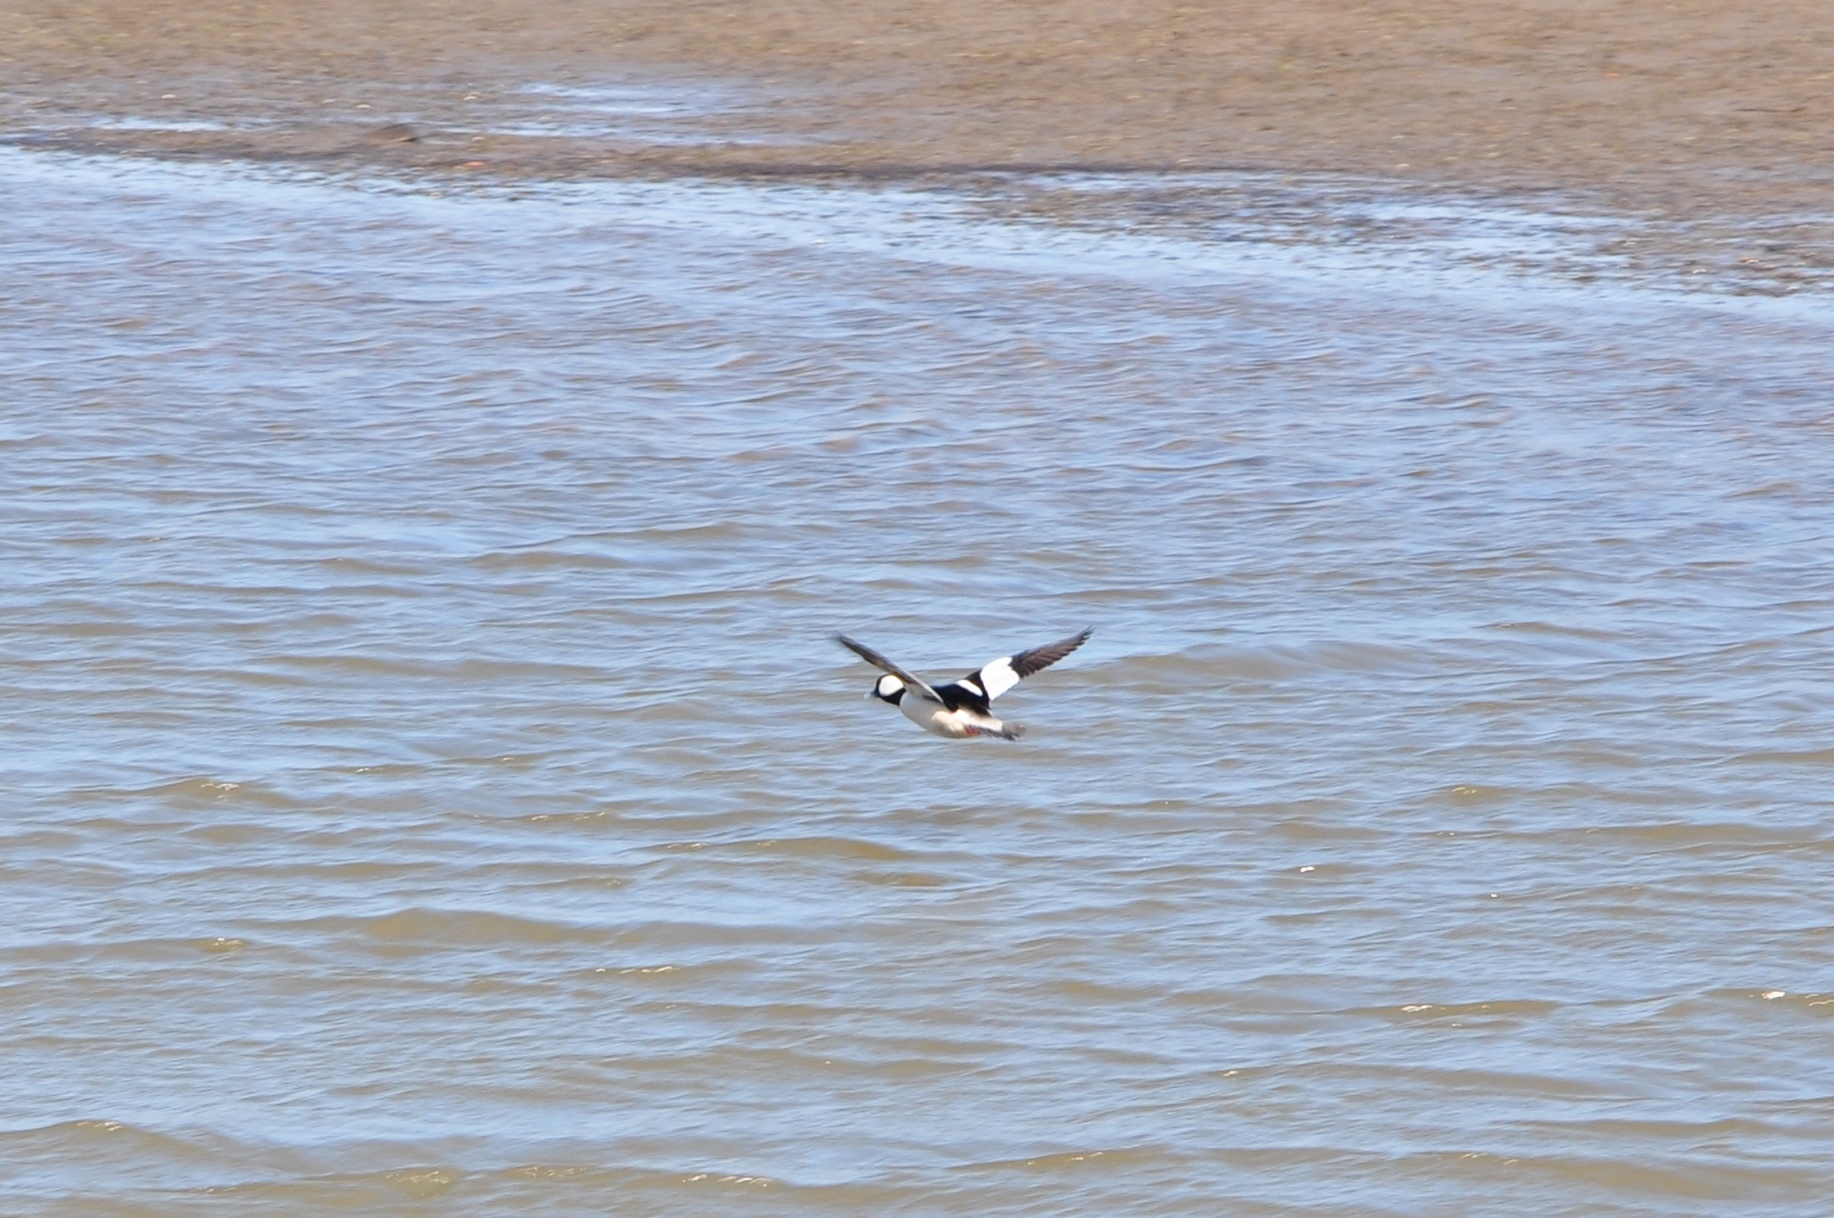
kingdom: Animalia
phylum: Chordata
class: Aves
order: Anseriformes
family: Anatidae
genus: Bucephala
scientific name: Bucephala albeola
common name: Bufflehead
